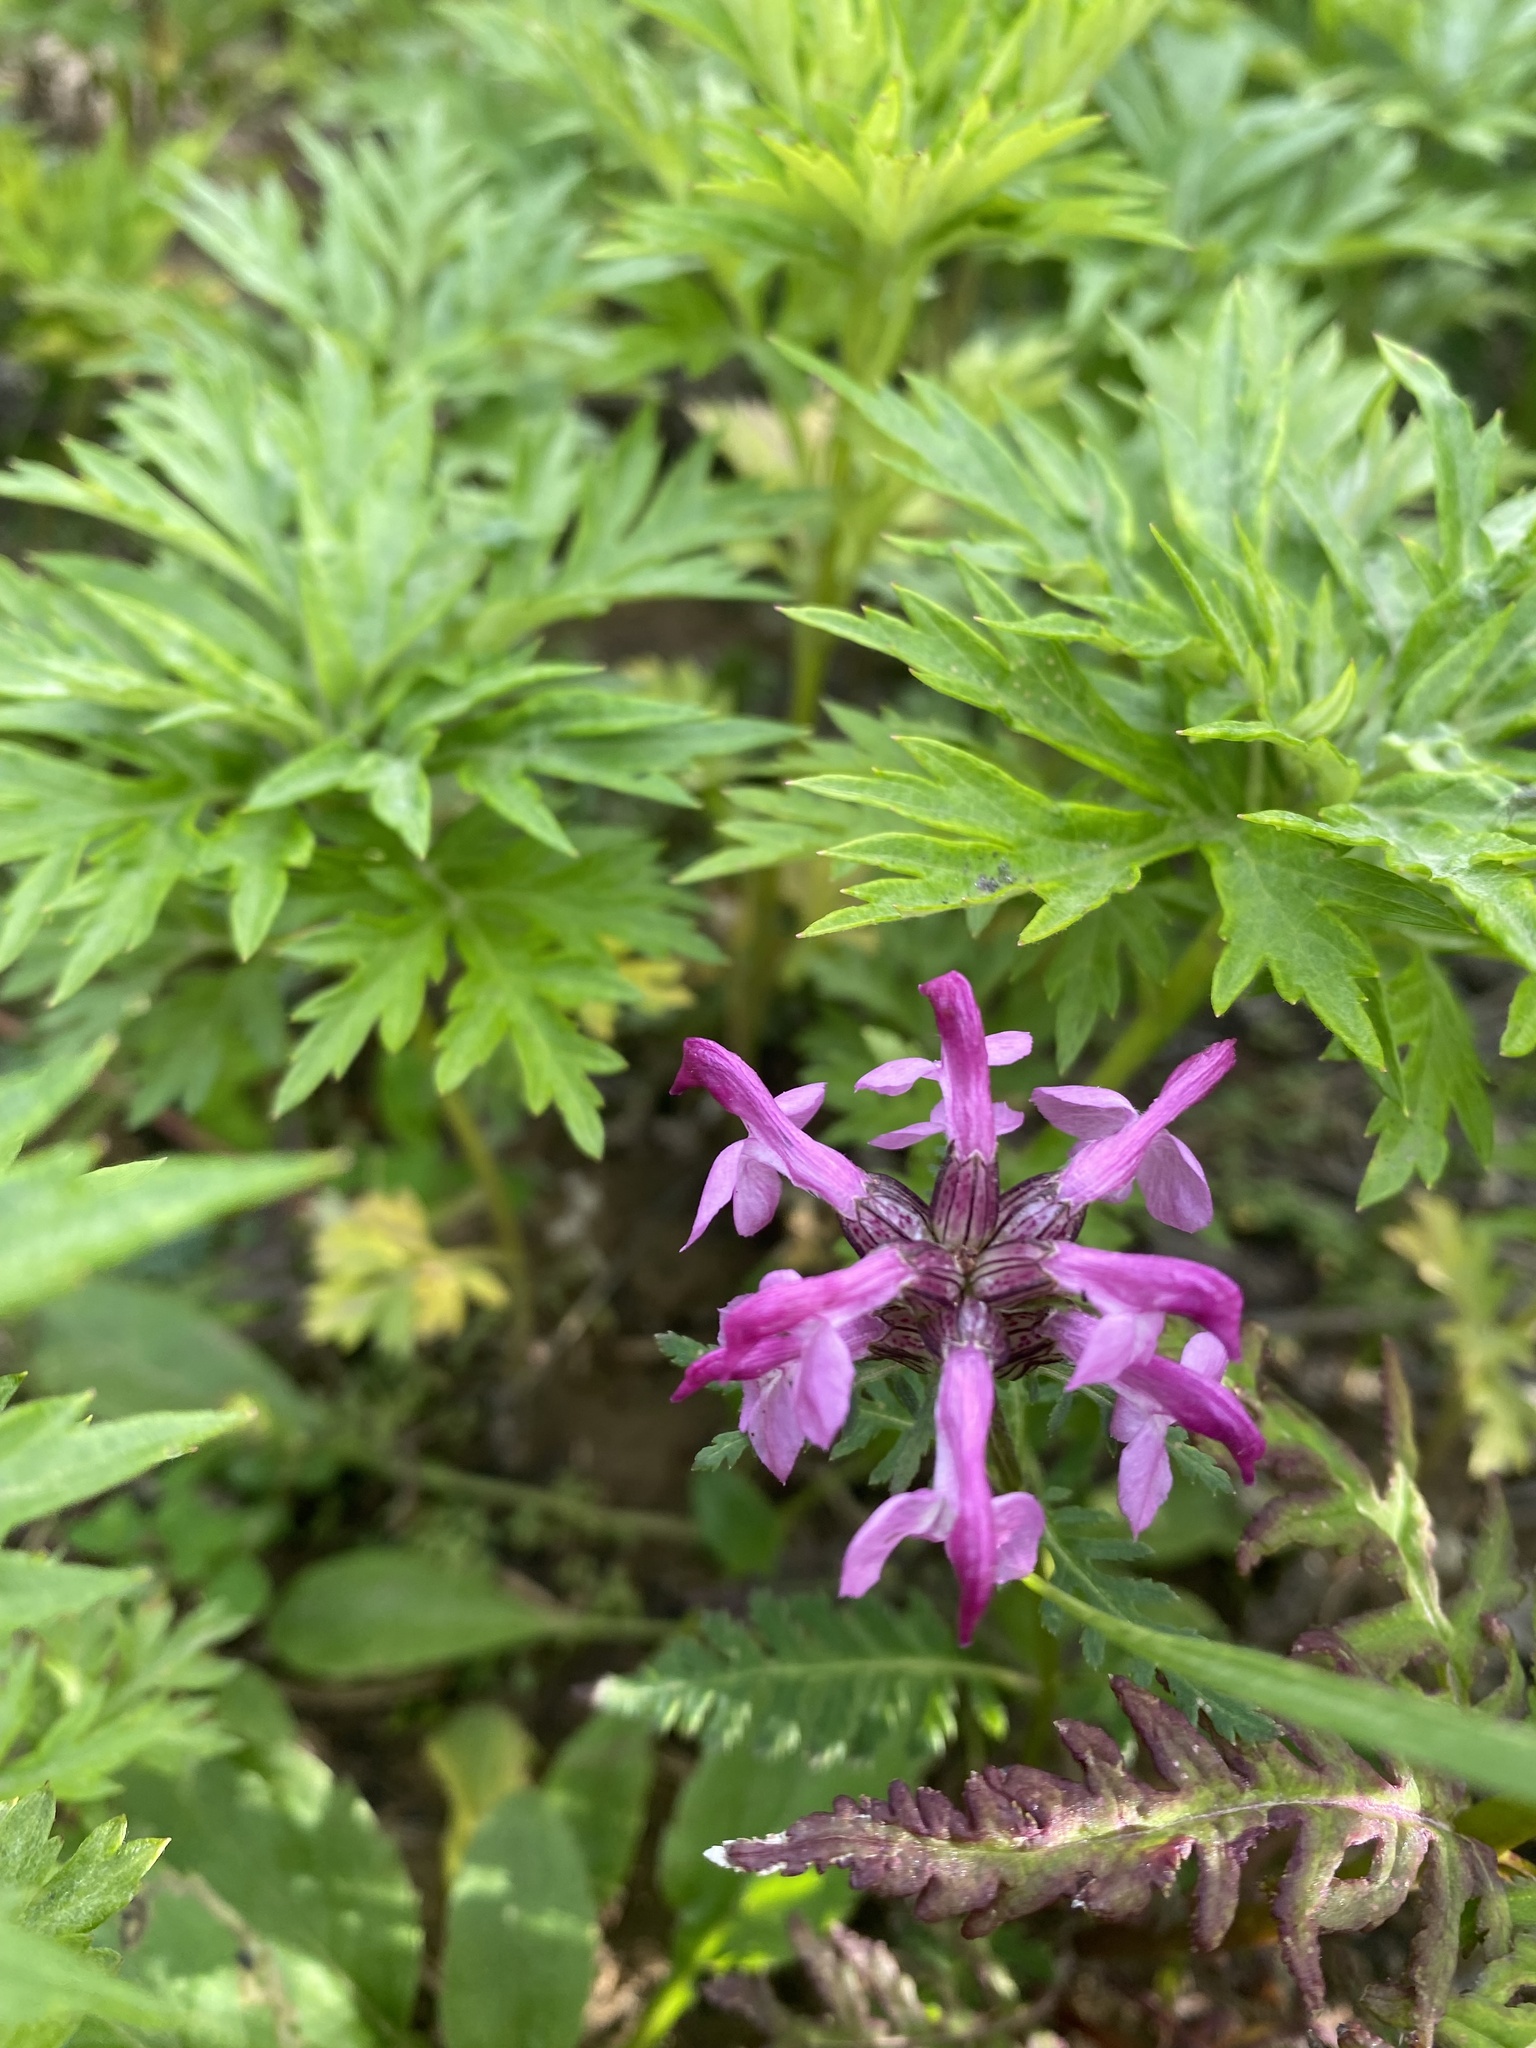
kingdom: Plantae
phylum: Tracheophyta
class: Magnoliopsida
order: Lamiales
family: Orobanchaceae
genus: Pedicularis
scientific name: Pedicularis chamissonis
